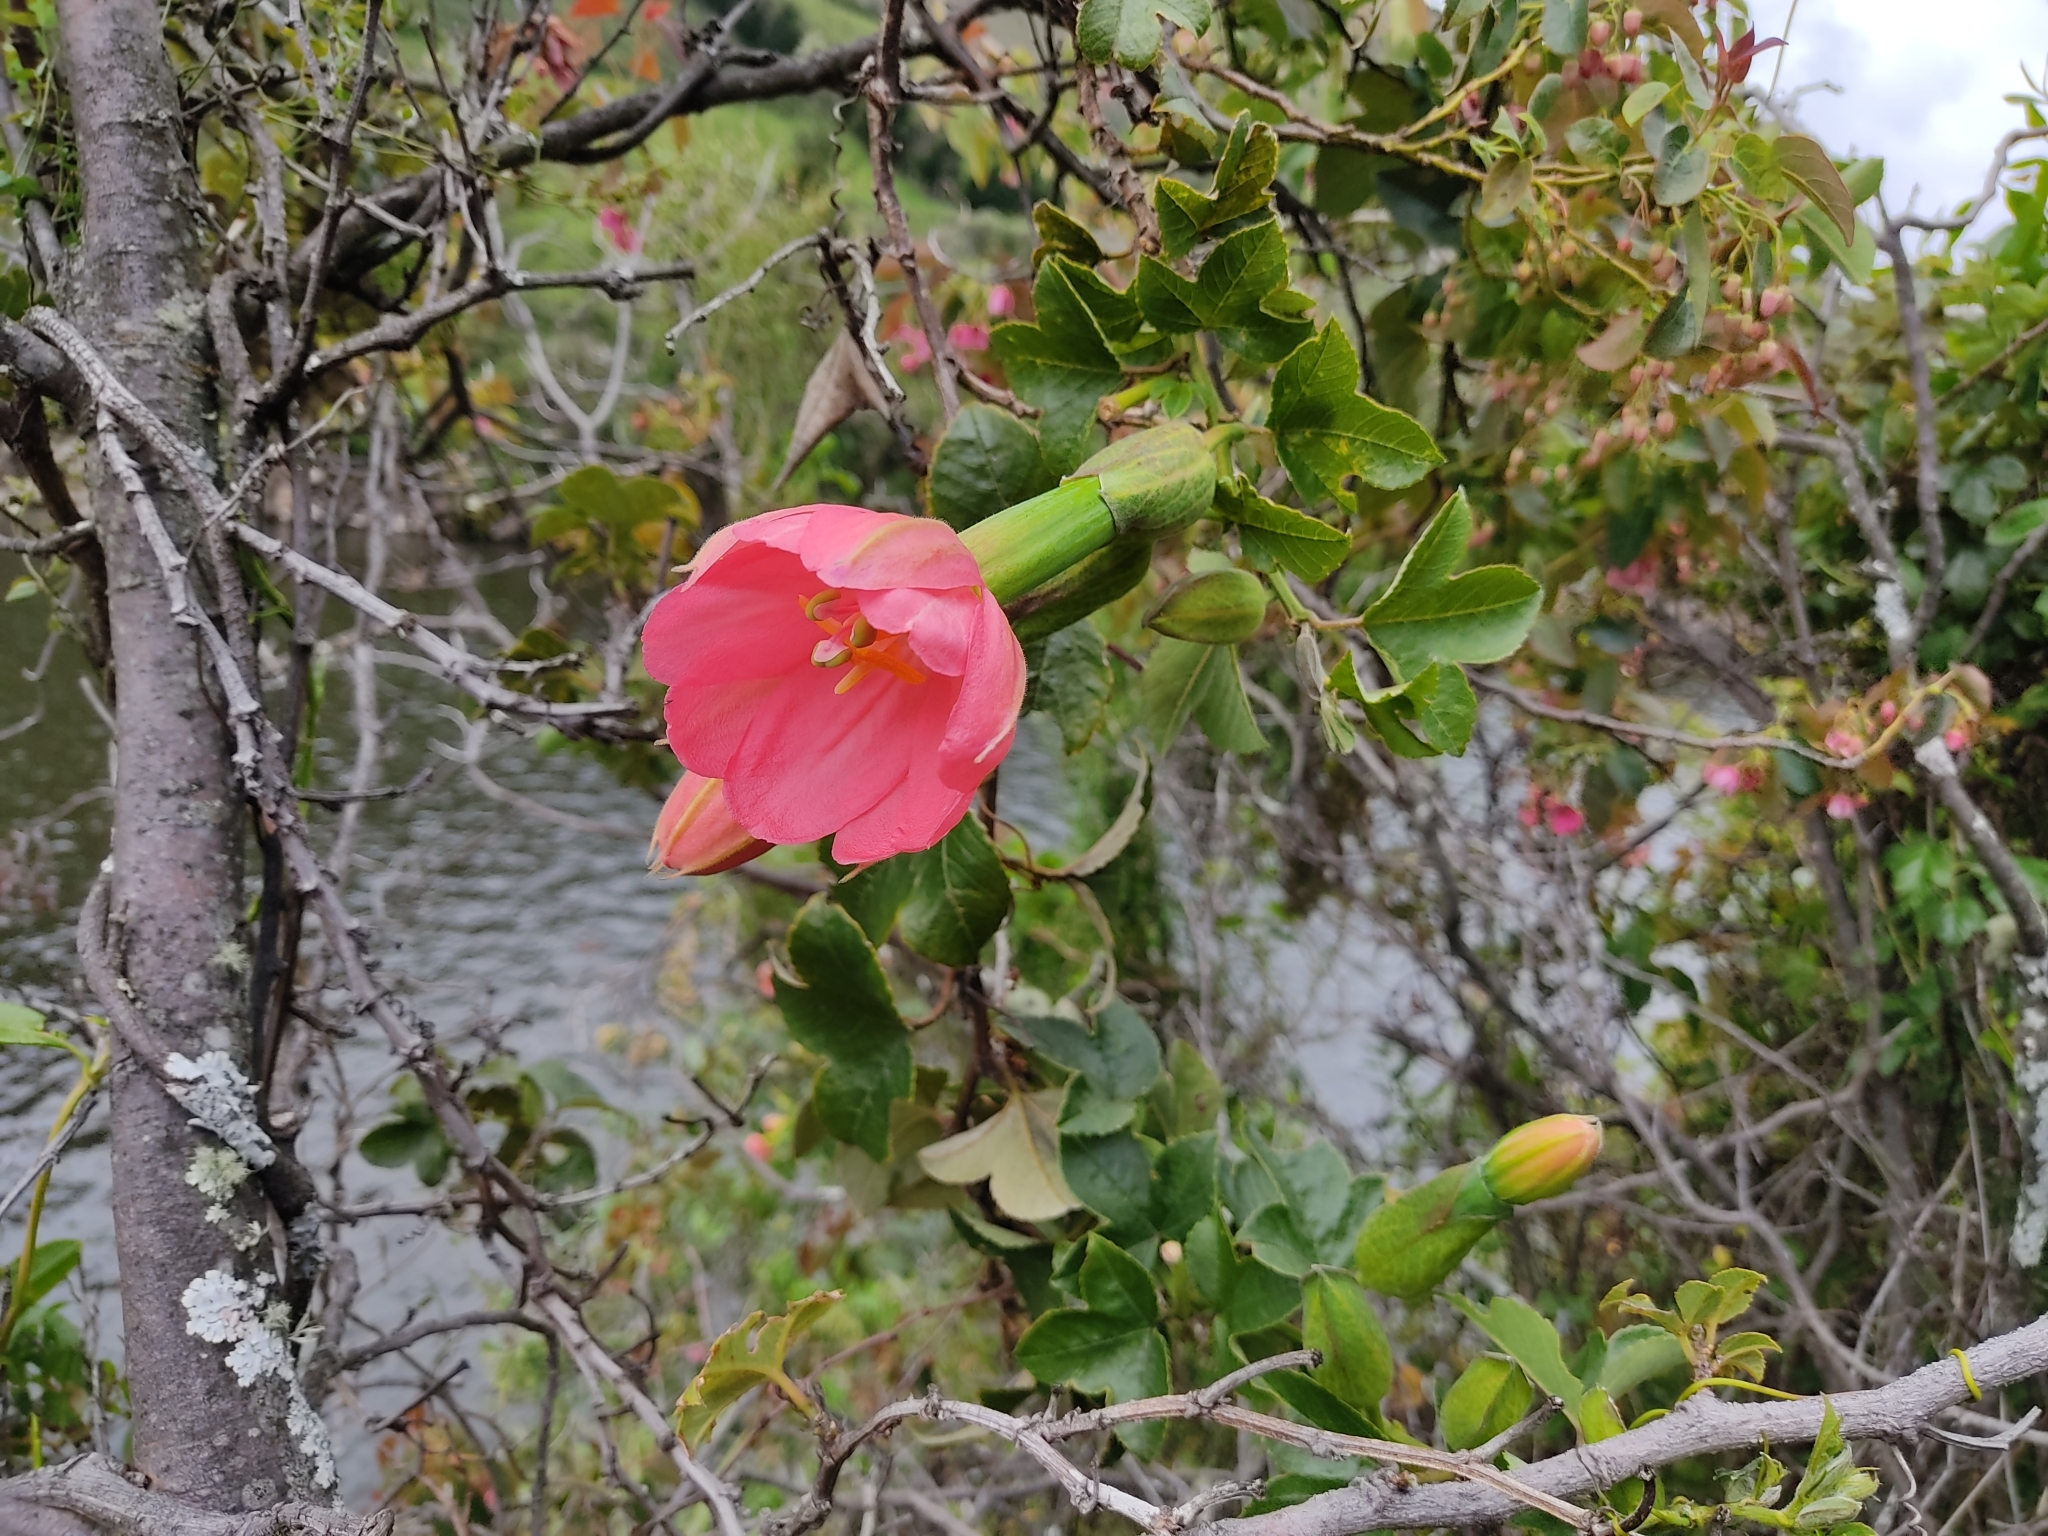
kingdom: Plantae
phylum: Tracheophyta
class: Magnoliopsida
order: Malpighiales
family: Passifloraceae
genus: Passiflora
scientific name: Passiflora mixta
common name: Passion flower
